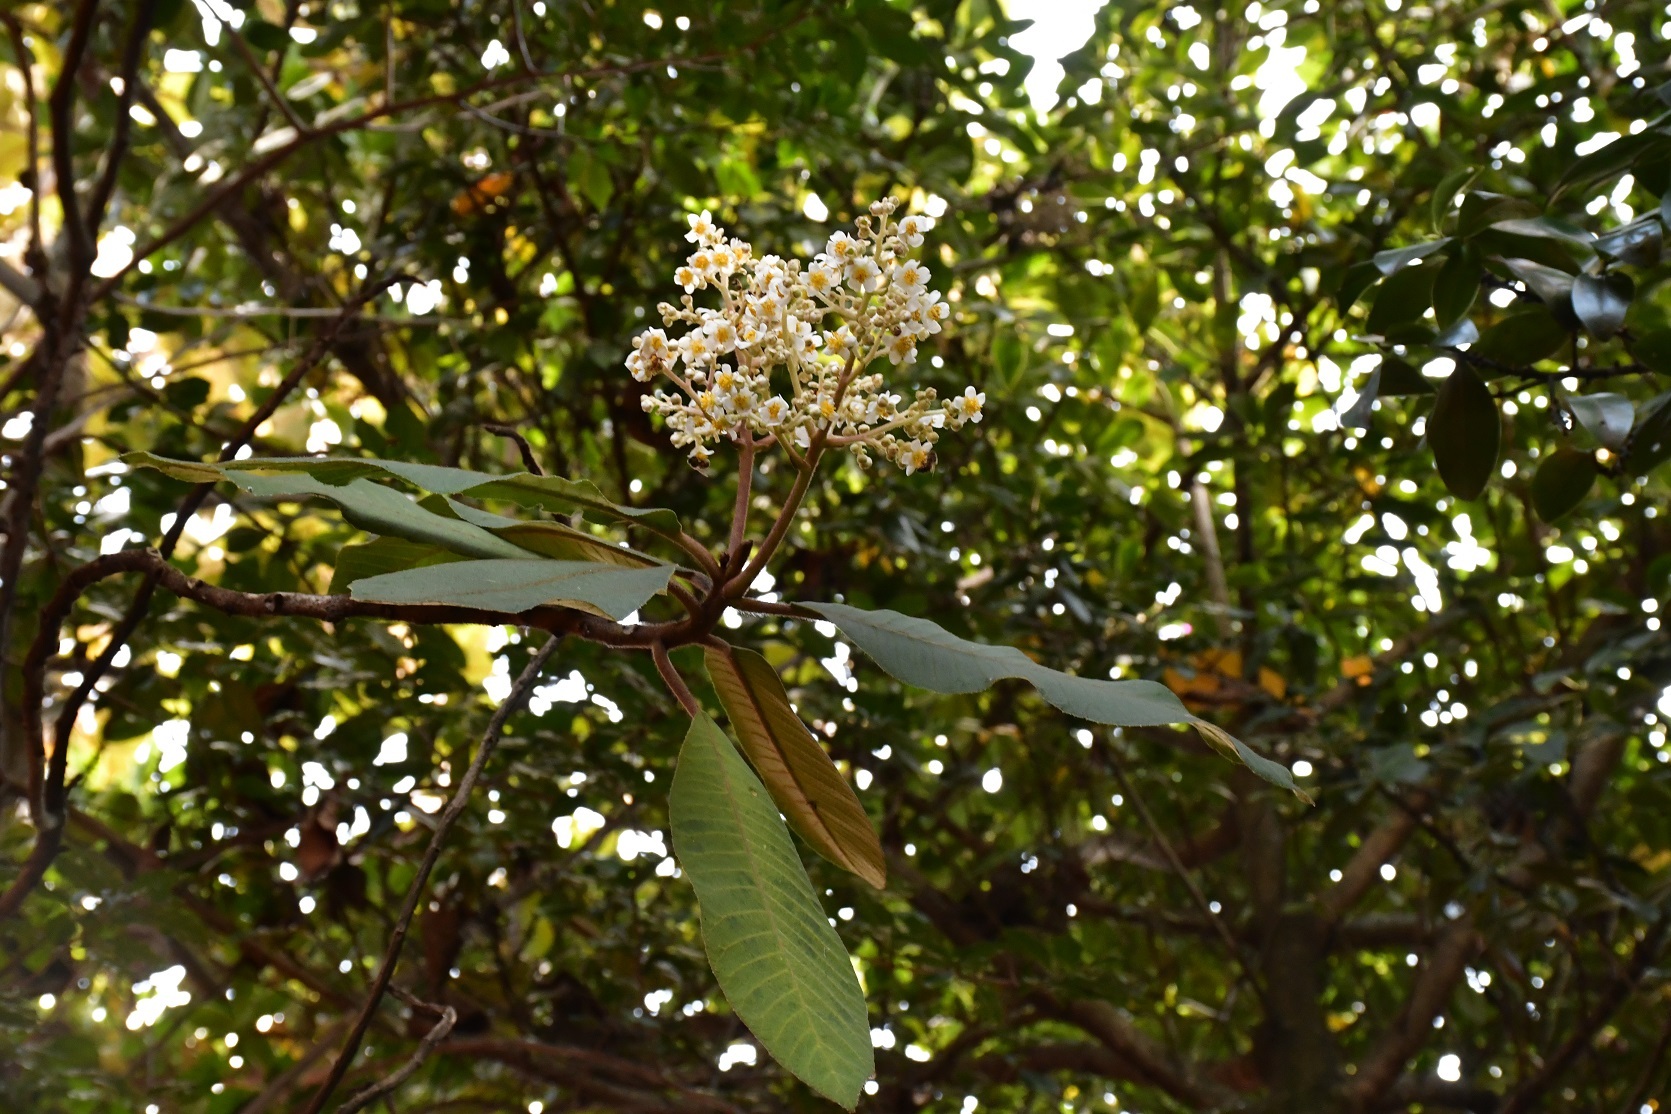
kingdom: Plantae
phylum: Tracheophyta
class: Magnoliopsida
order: Ericales
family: Actinidiaceae
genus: Saurauia
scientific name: Saurauia scabrida
